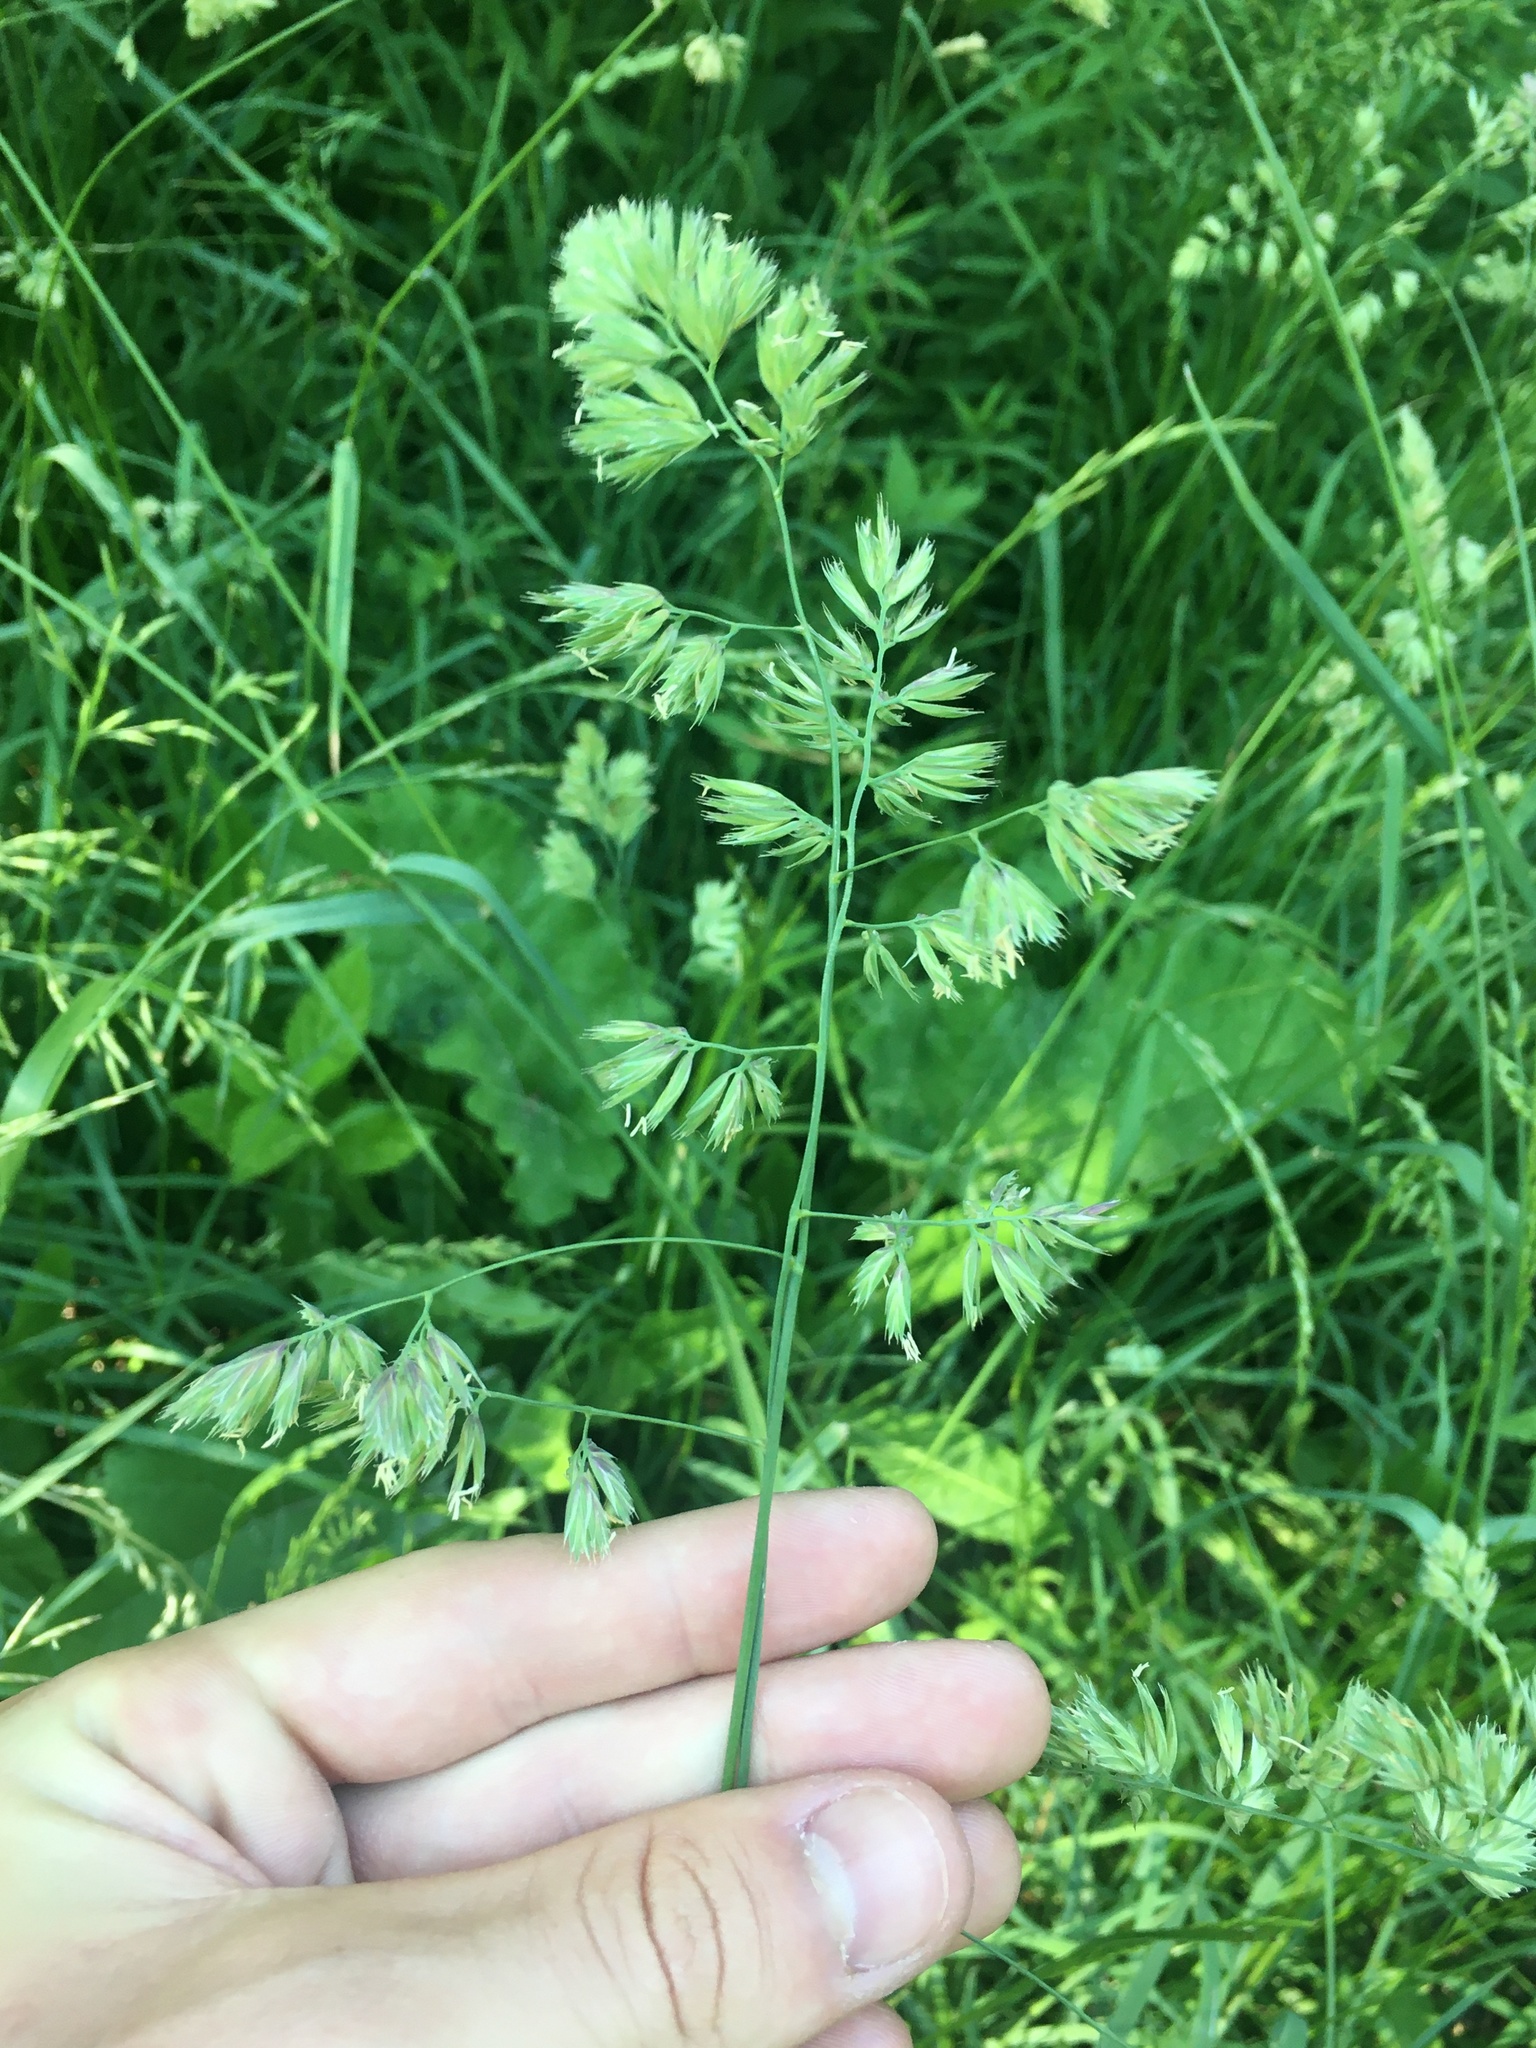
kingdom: Plantae
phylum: Tracheophyta
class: Liliopsida
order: Poales
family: Poaceae
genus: Dactylis
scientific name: Dactylis glomerata
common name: Orchardgrass
